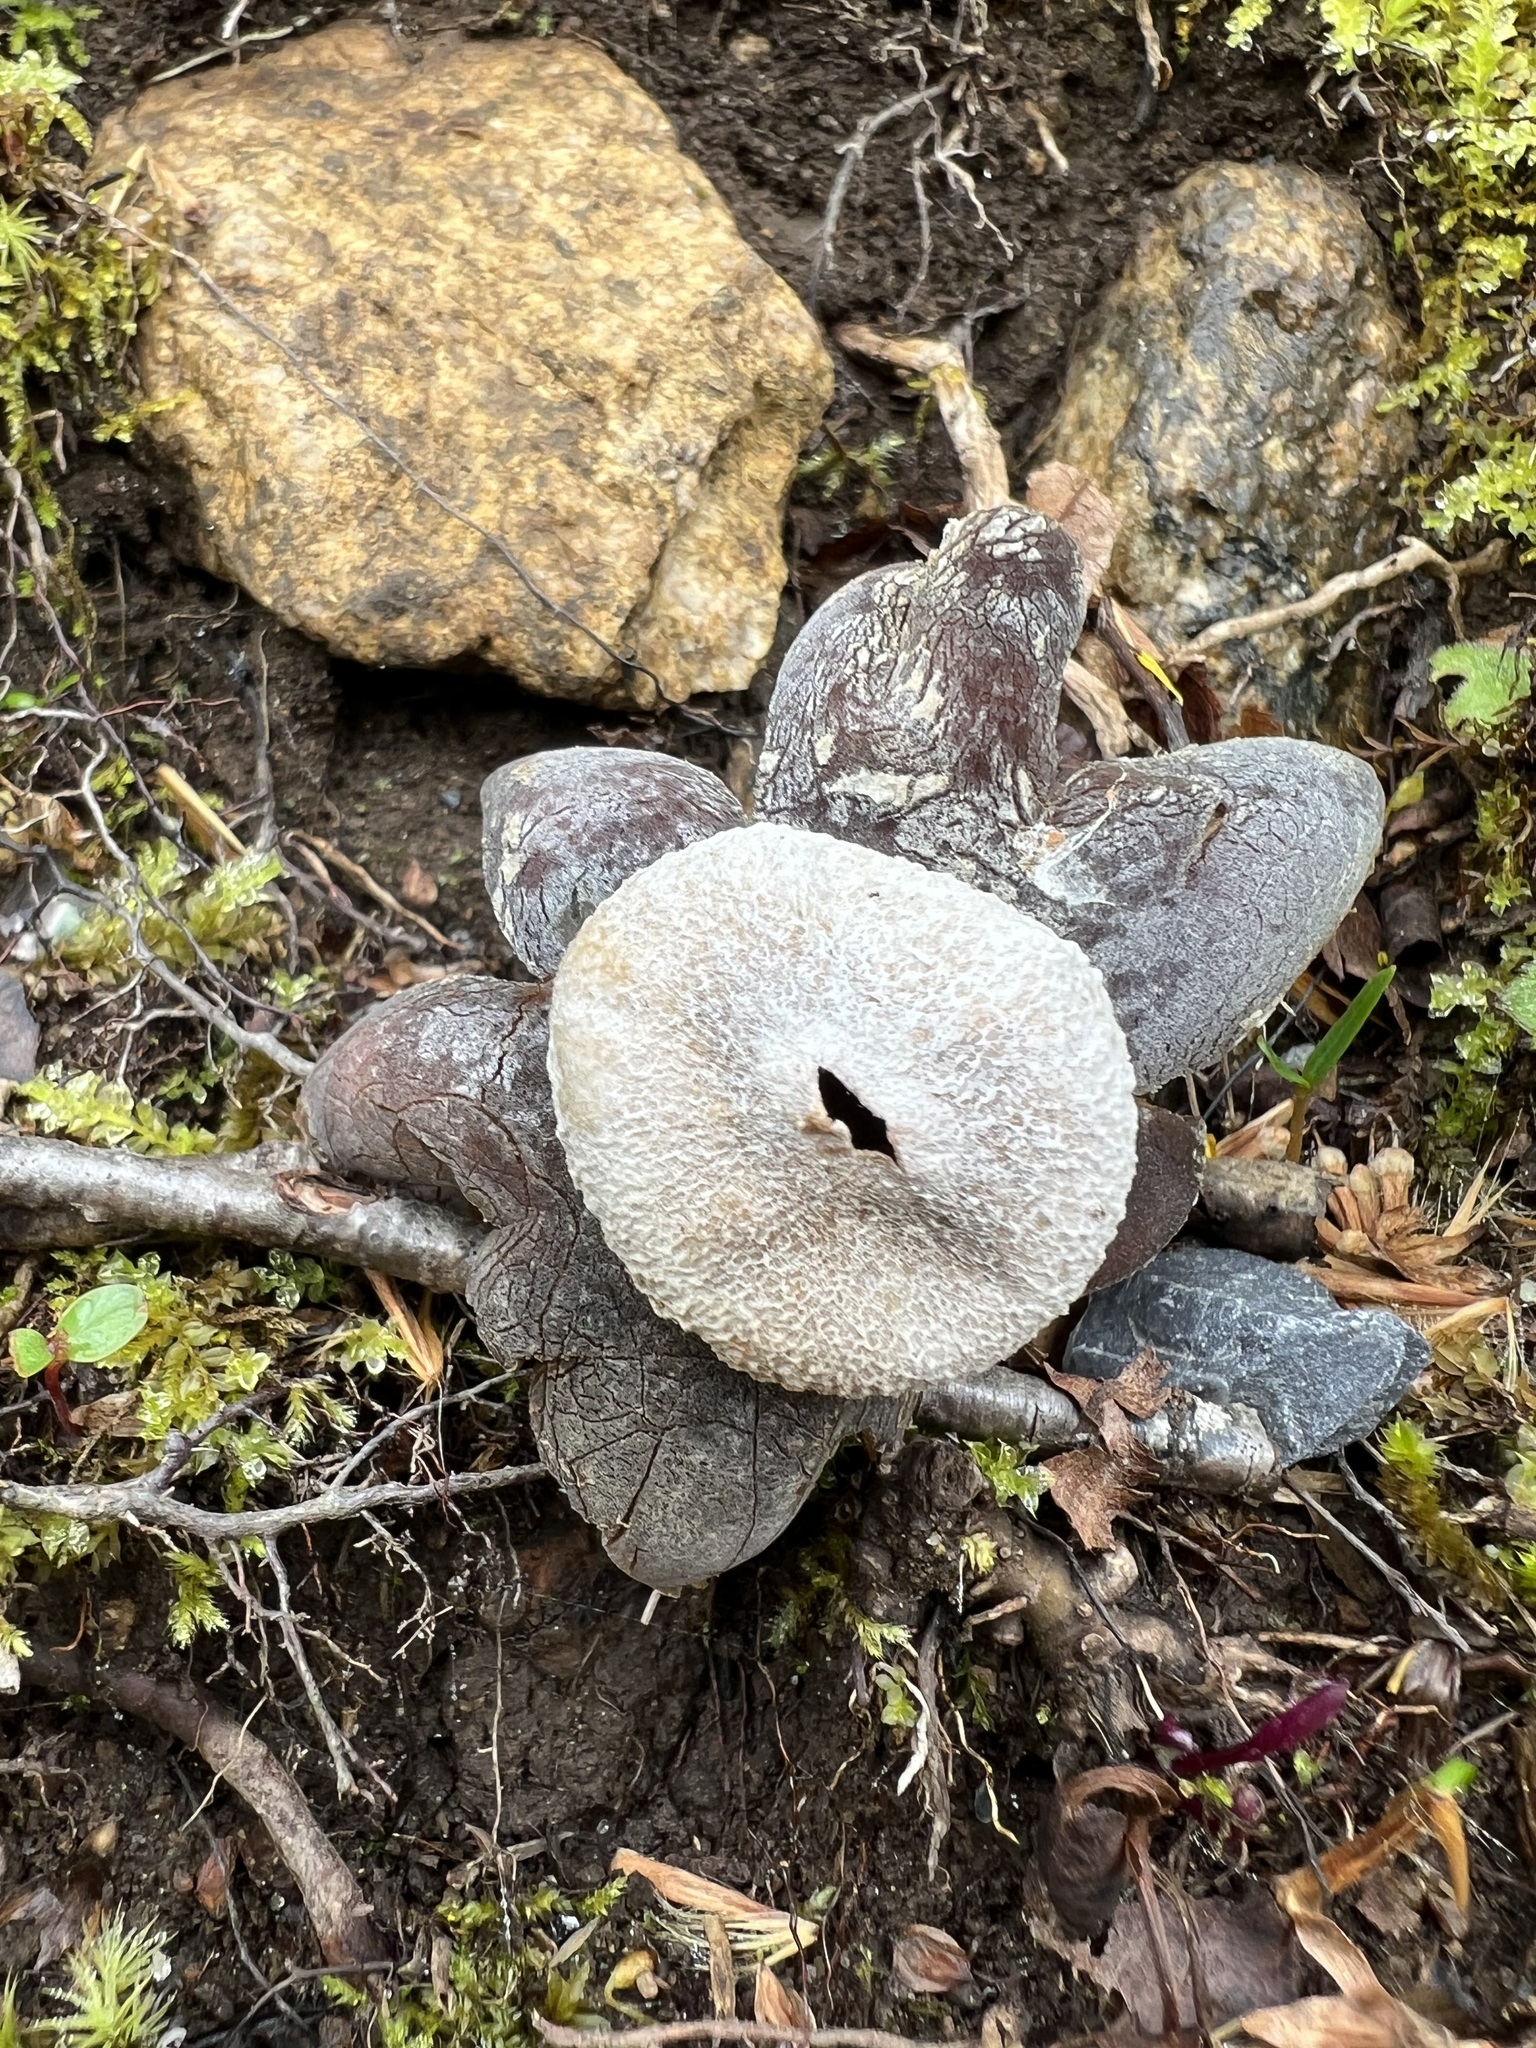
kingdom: Fungi
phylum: Basidiomycota
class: Agaricomycetes
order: Boletales
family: Diplocystidiaceae
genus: Astraeus
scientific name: Astraeus hygrometricus
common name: Barometer earthstar
